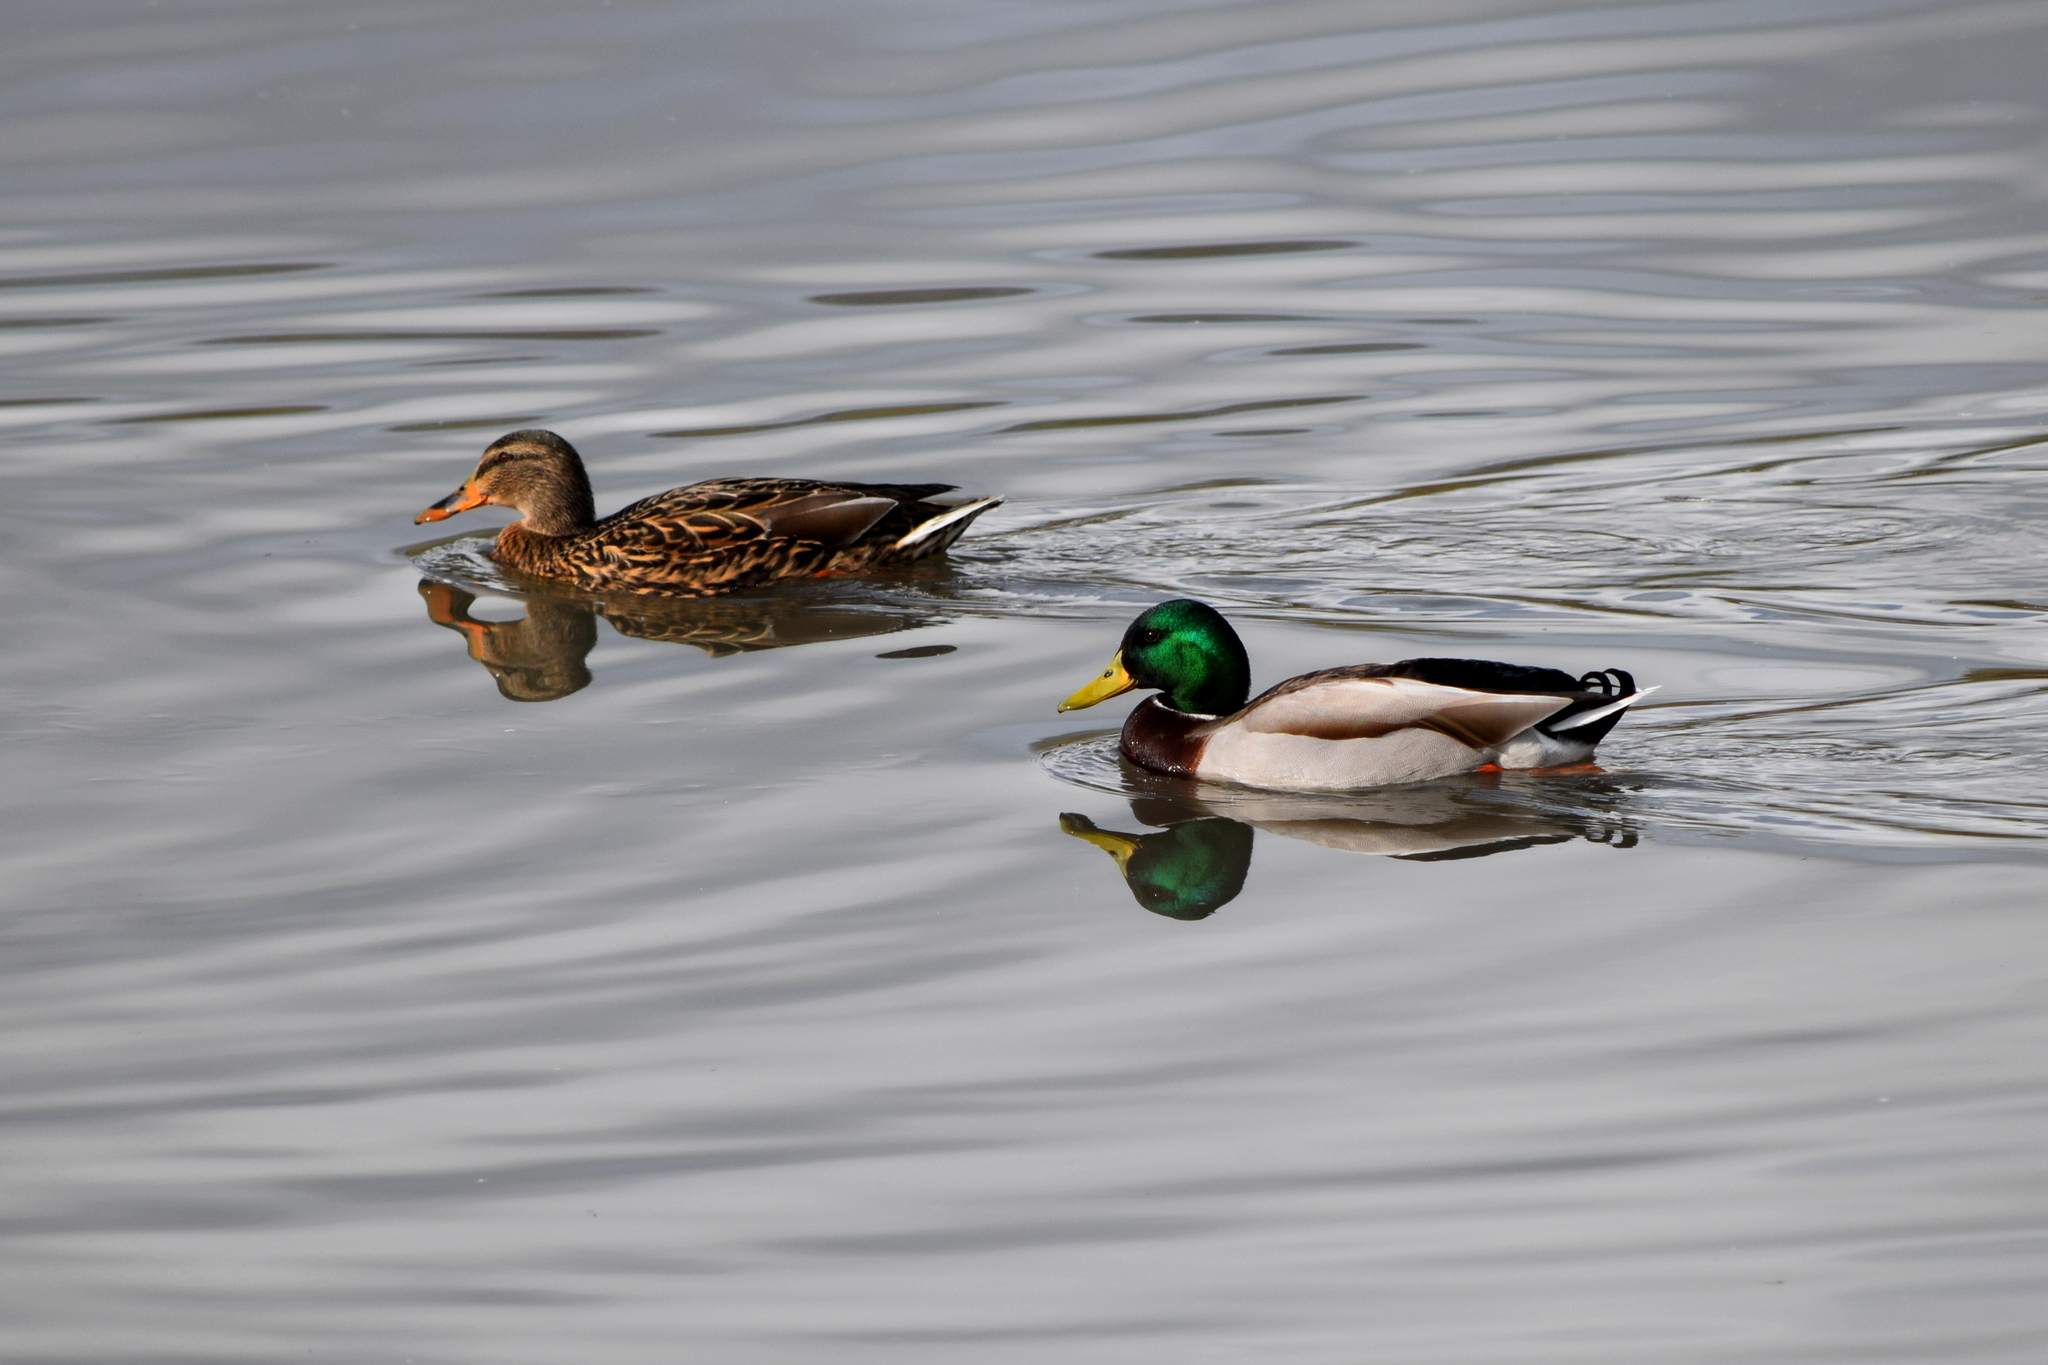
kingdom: Animalia
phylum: Chordata
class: Aves
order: Anseriformes
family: Anatidae
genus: Anas
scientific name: Anas platyrhynchos
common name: Mallard
